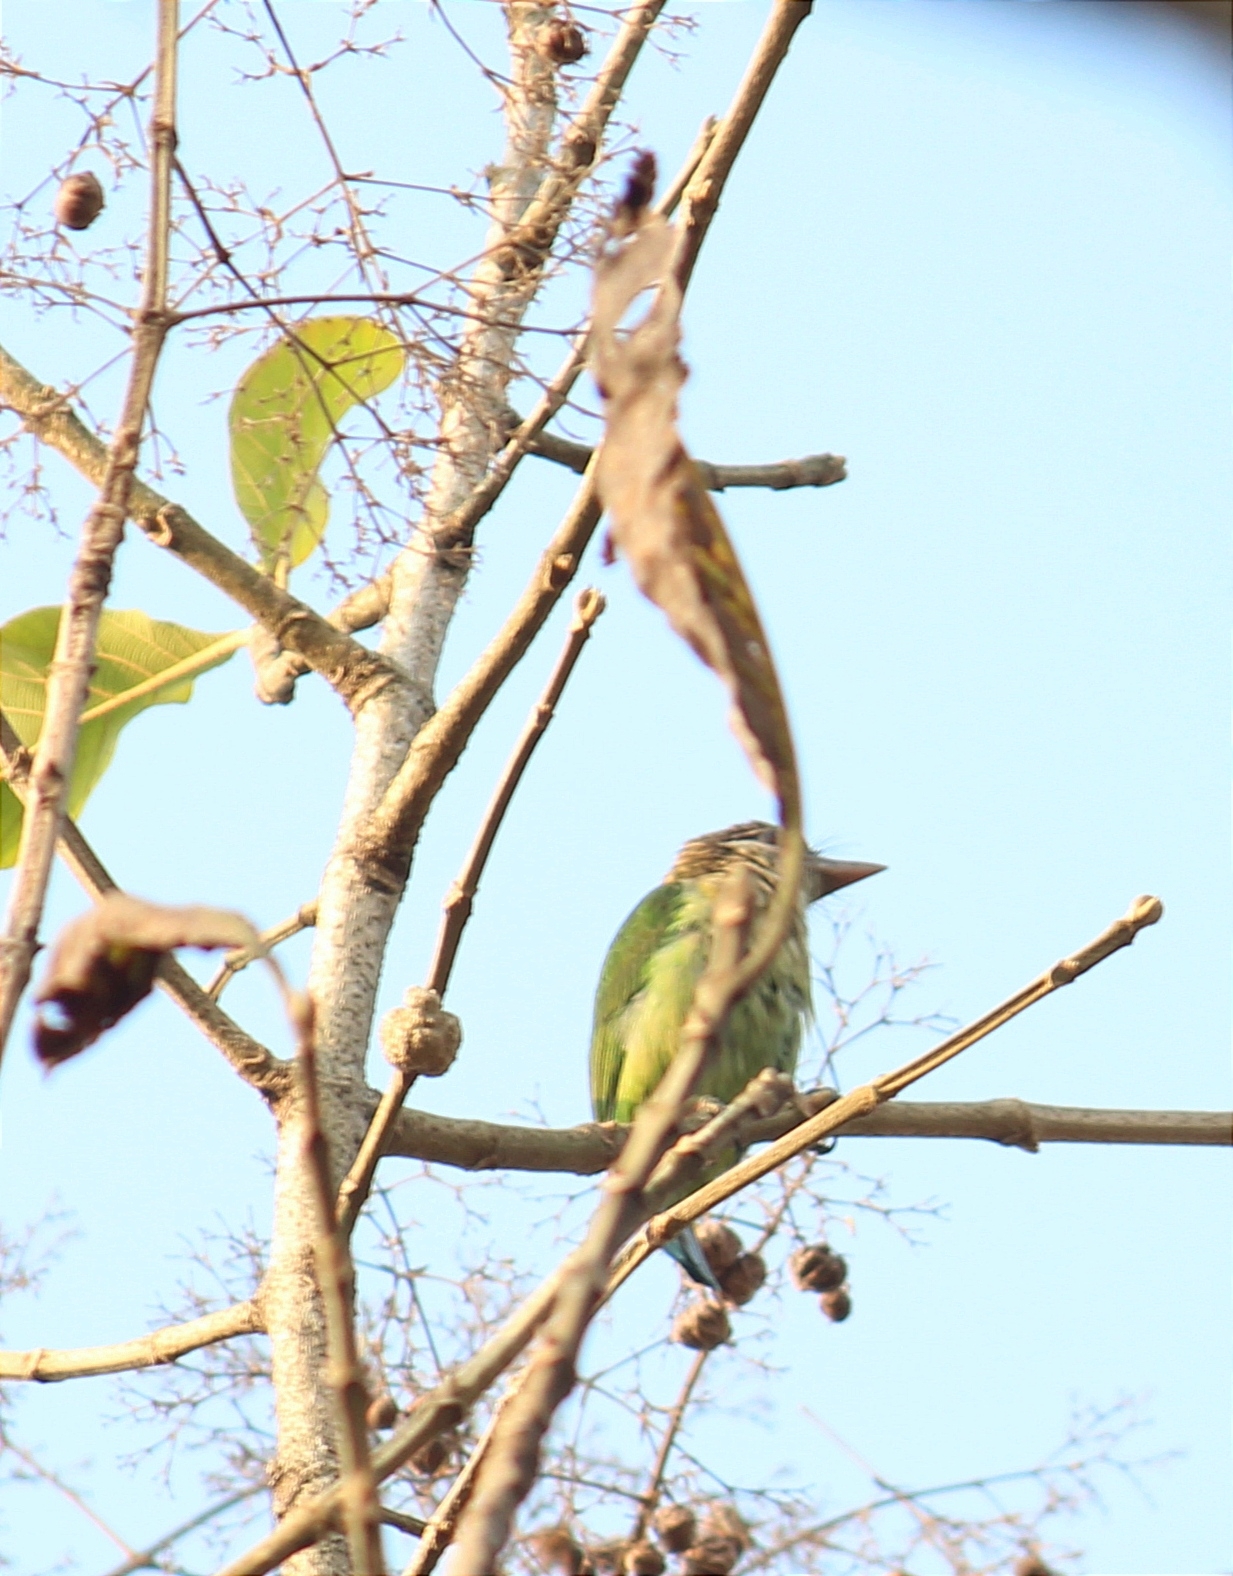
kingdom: Animalia
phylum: Chordata
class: Aves
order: Piciformes
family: Megalaimidae
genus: Psilopogon
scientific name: Psilopogon viridis
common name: White-cheeked barbet
